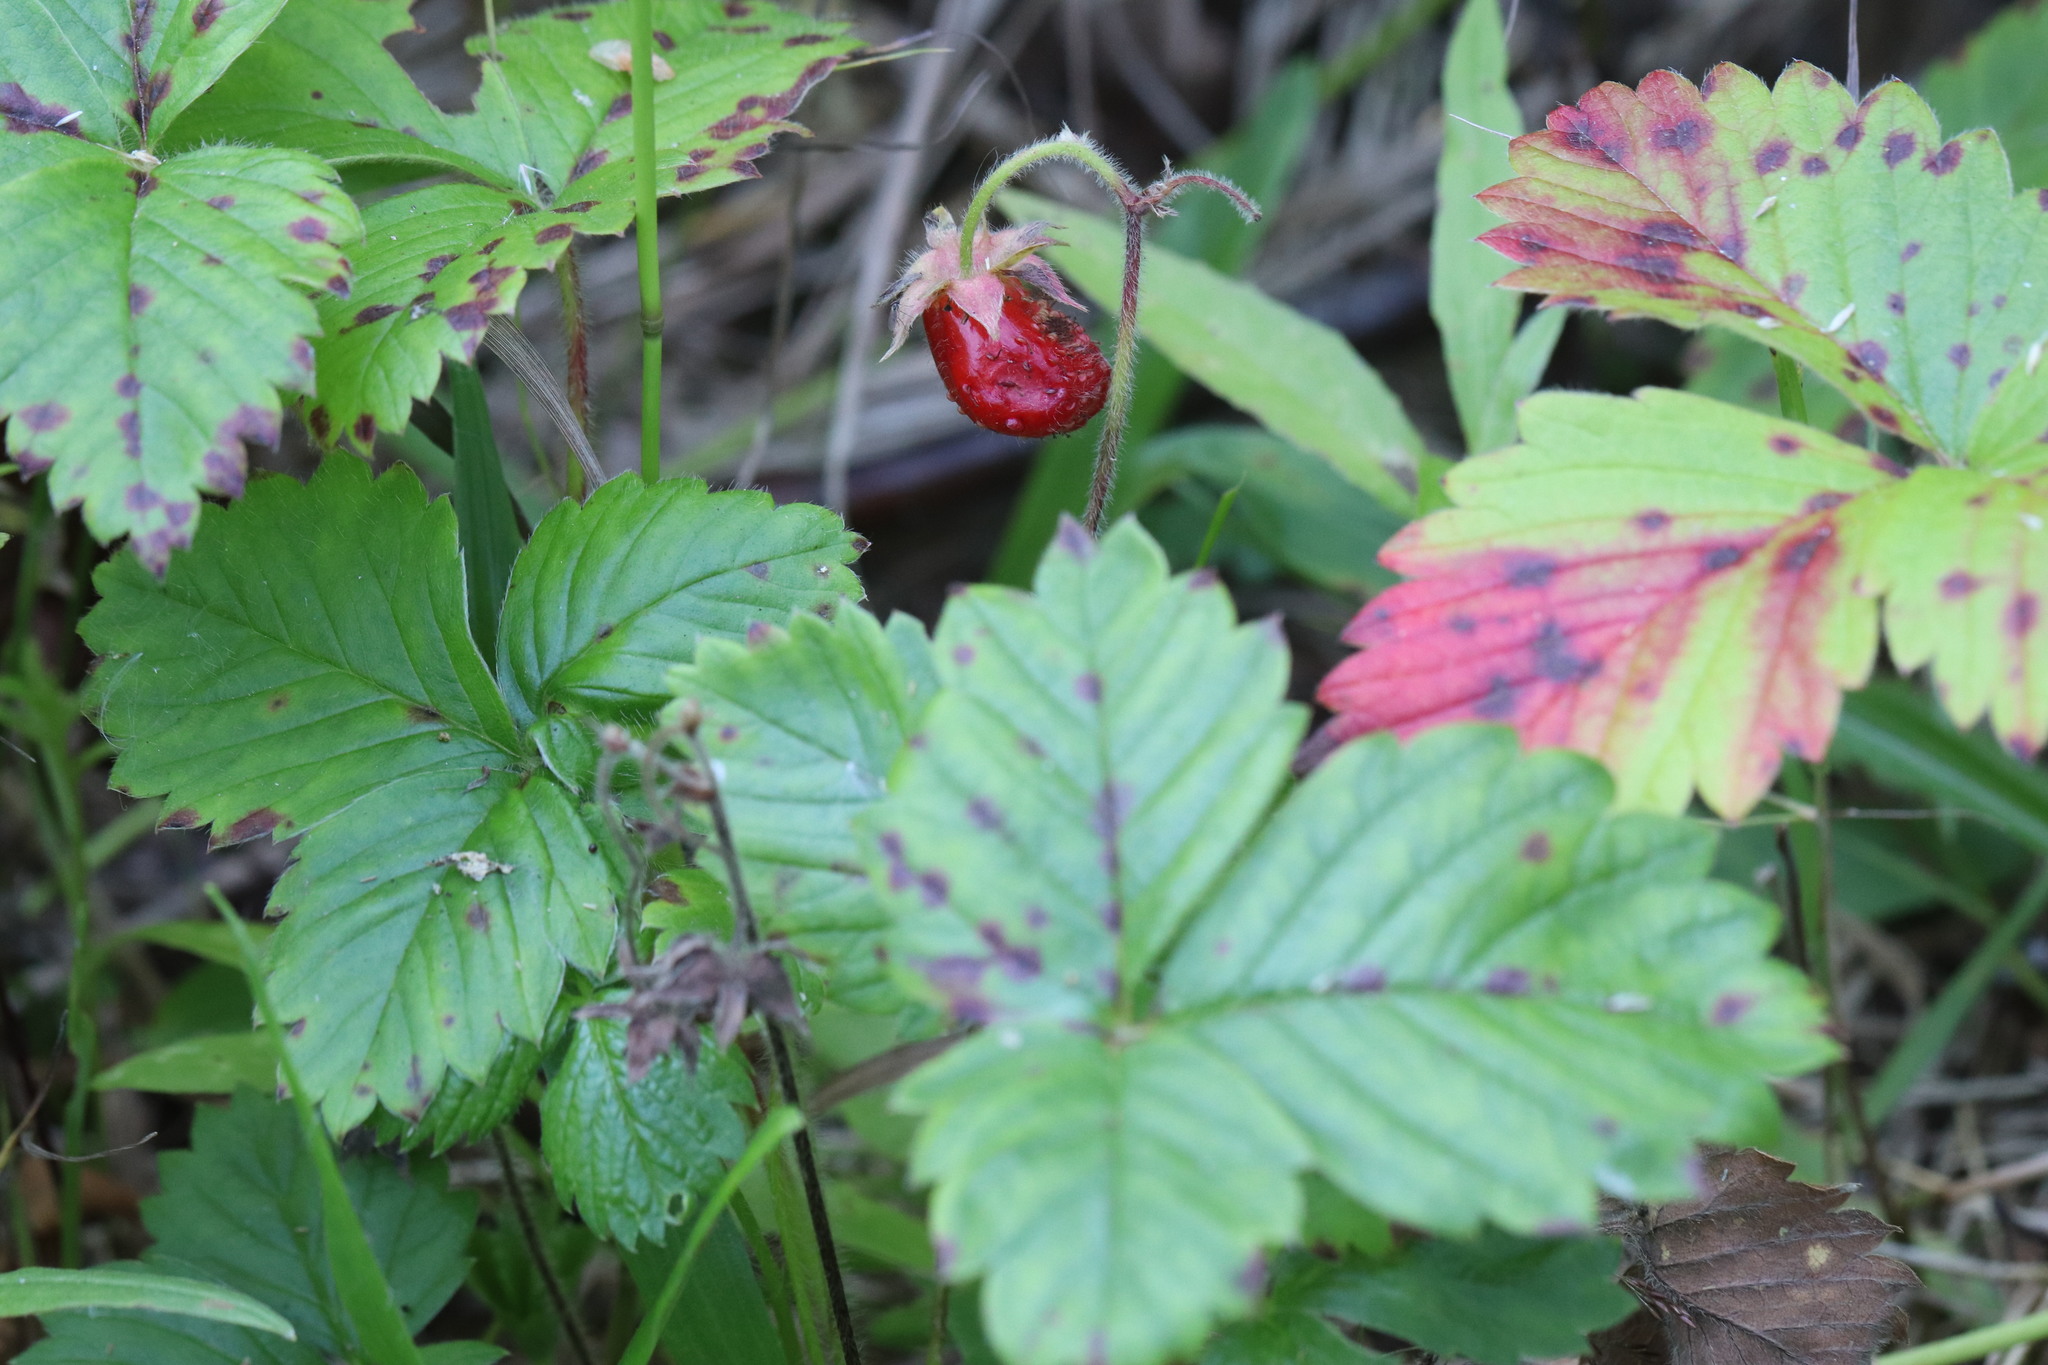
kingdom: Plantae
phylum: Tracheophyta
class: Magnoliopsida
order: Rosales
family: Rosaceae
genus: Fragaria
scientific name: Fragaria ananassa
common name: Garden strawberry
